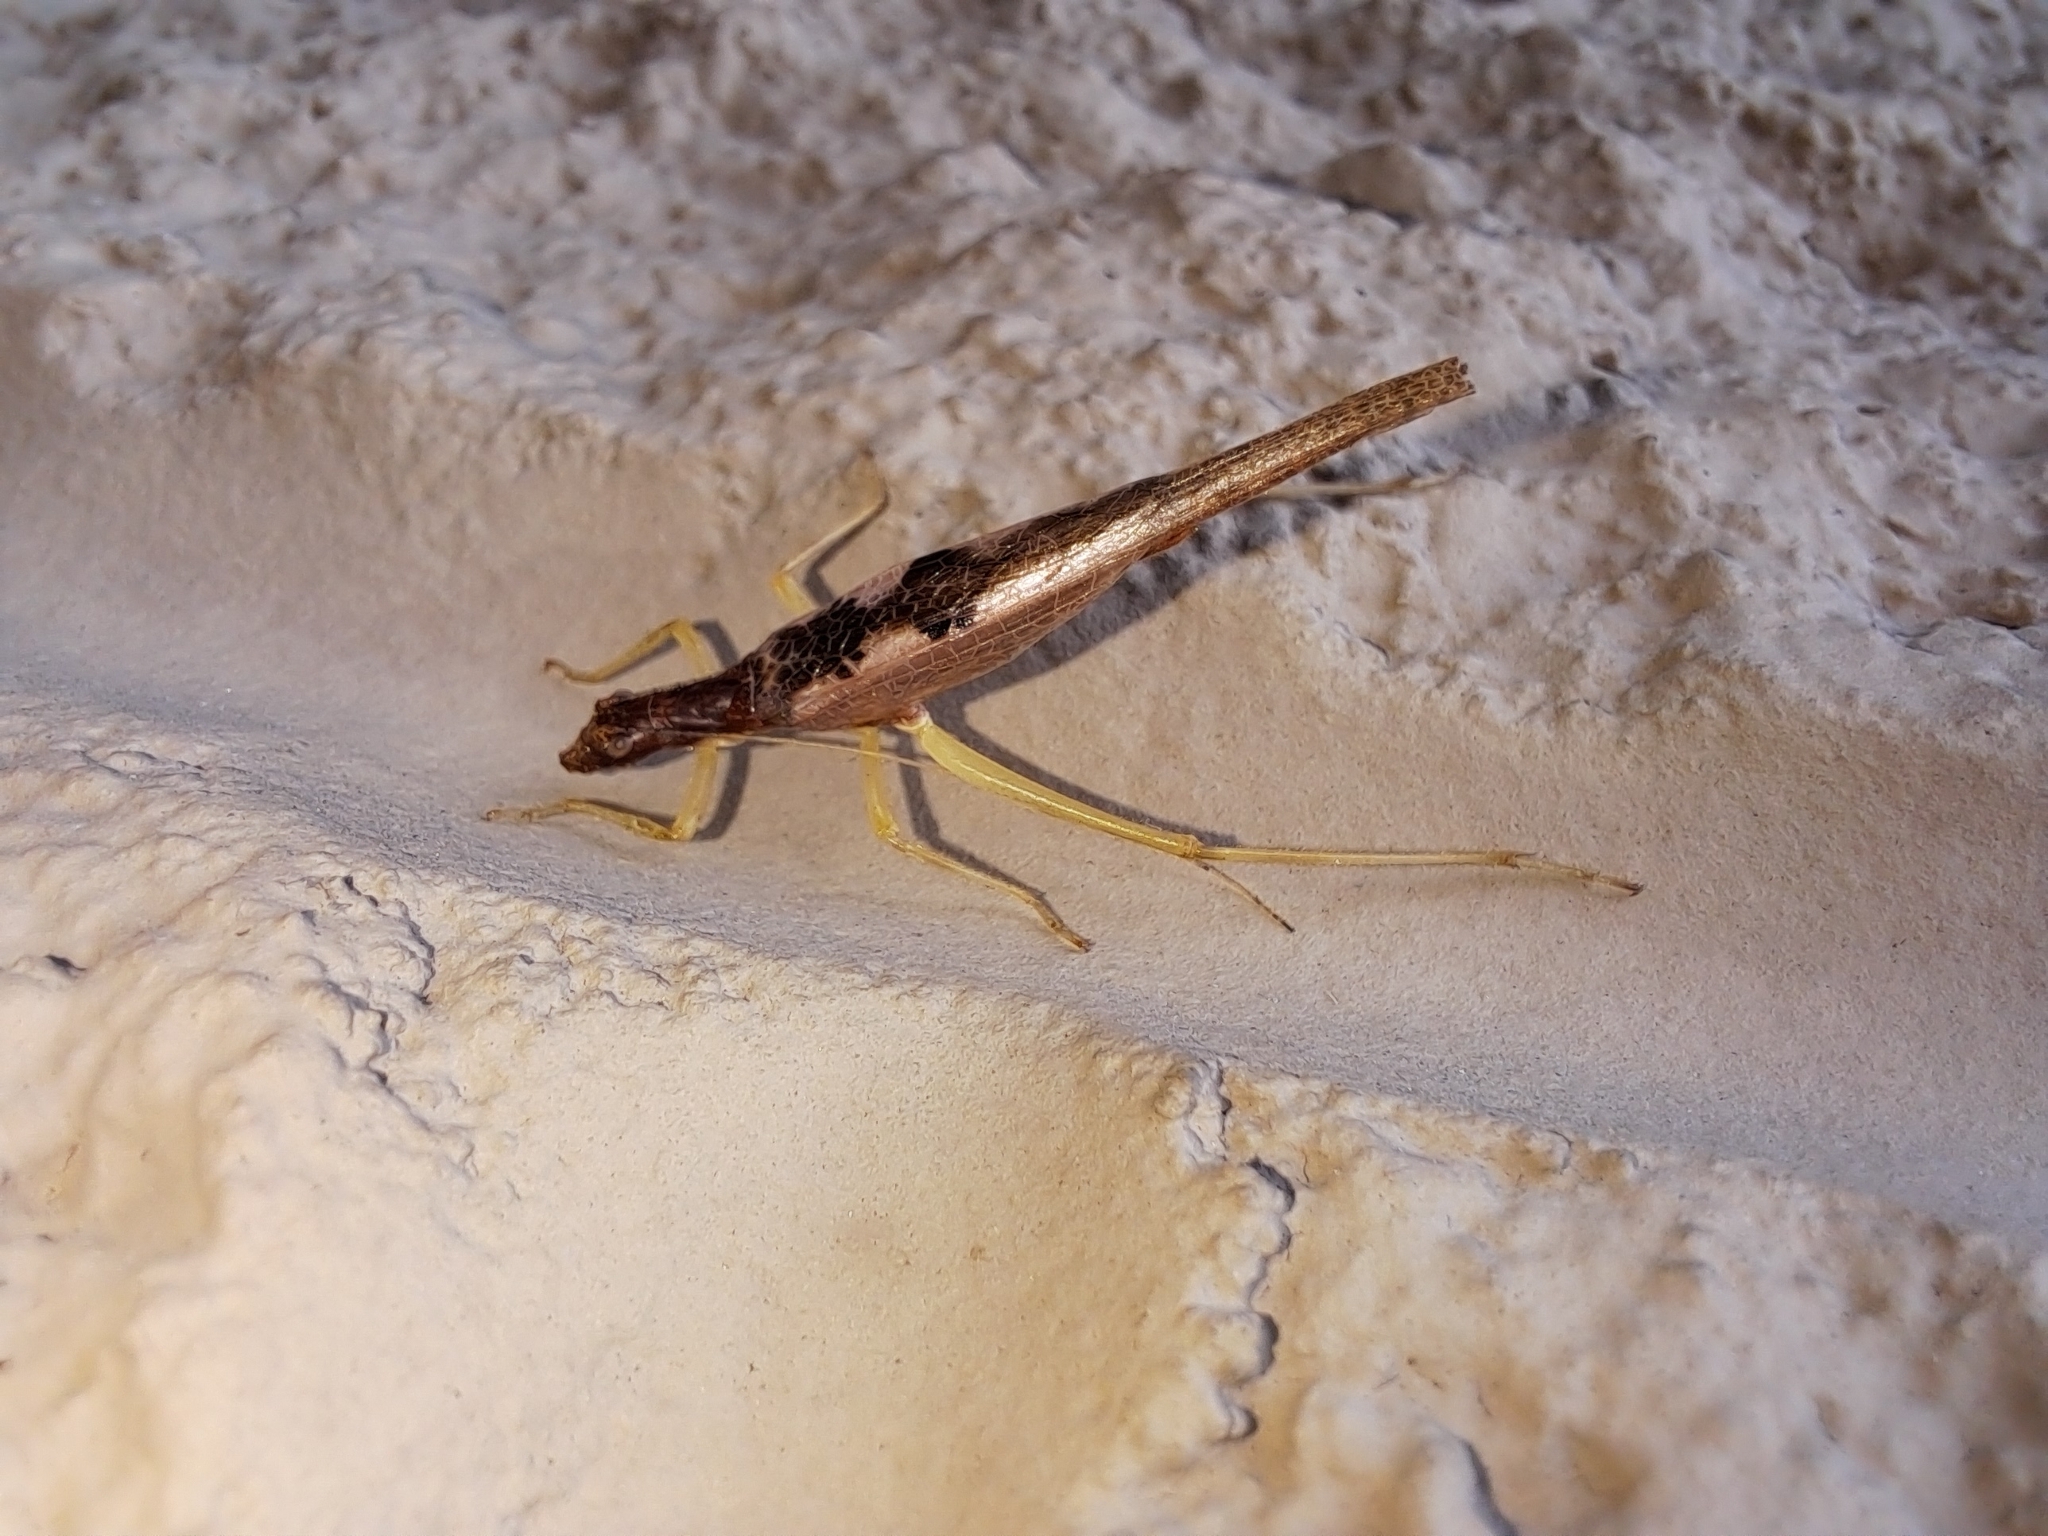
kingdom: Animalia
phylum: Arthropoda
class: Insecta
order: Orthoptera
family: Gryllidae
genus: Neoxabea
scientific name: Neoxabea bipunctata
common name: Two-spotted tree cricket
